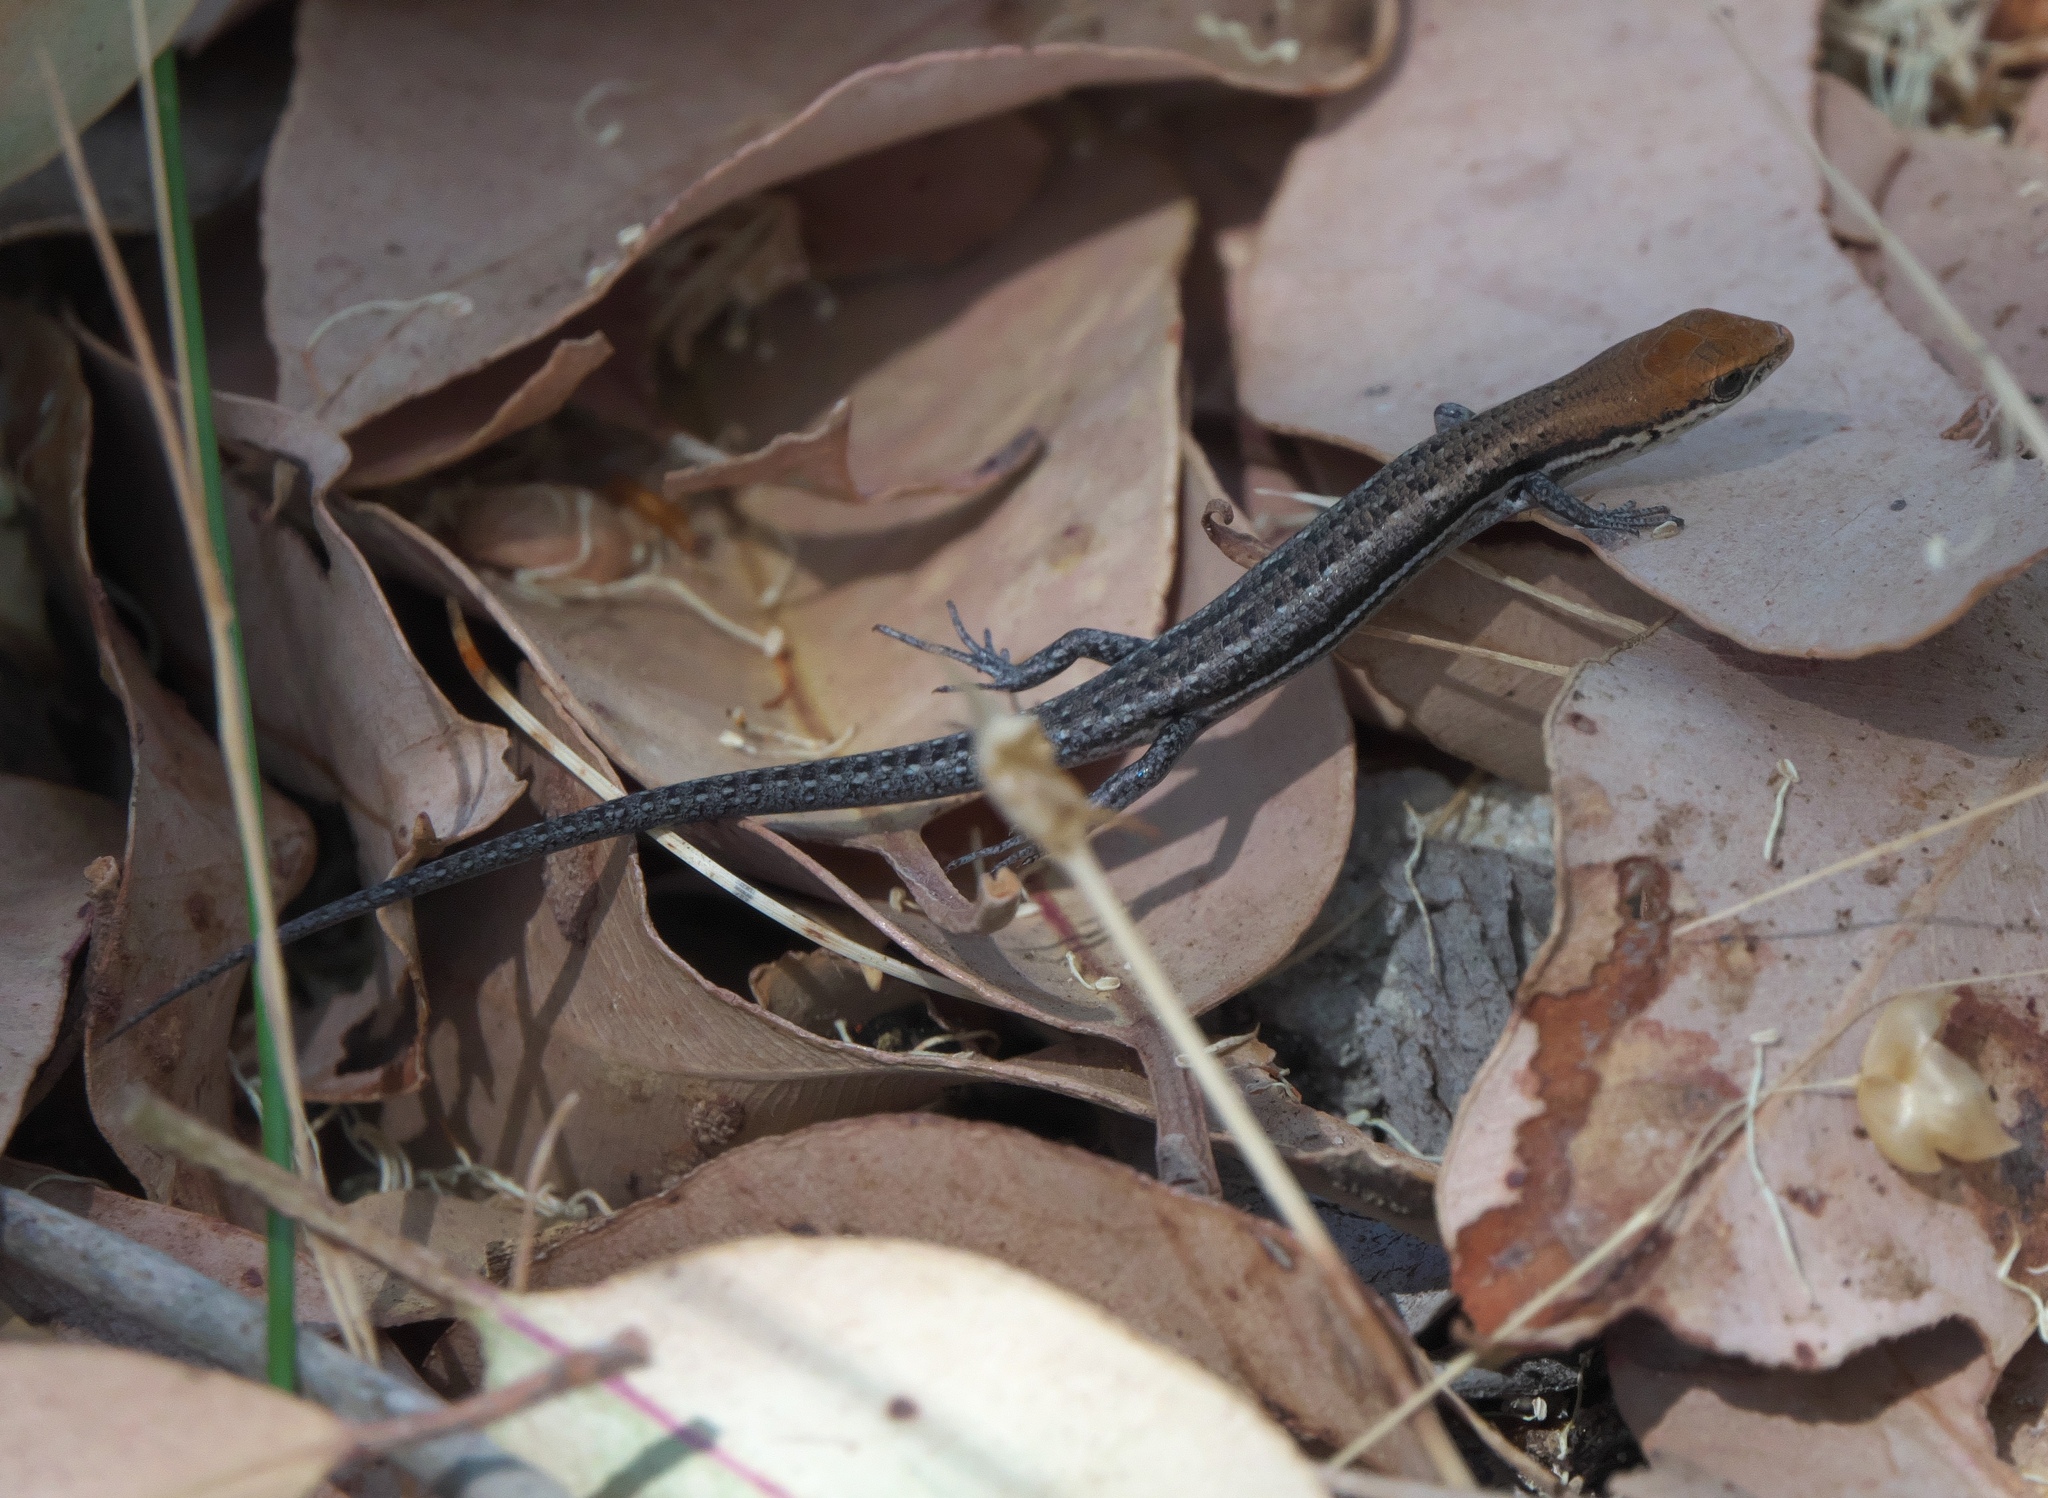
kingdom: Animalia
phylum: Chordata
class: Squamata
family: Scincidae
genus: Morethia
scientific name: Morethia lineoocellata
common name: West coast morethia skink
